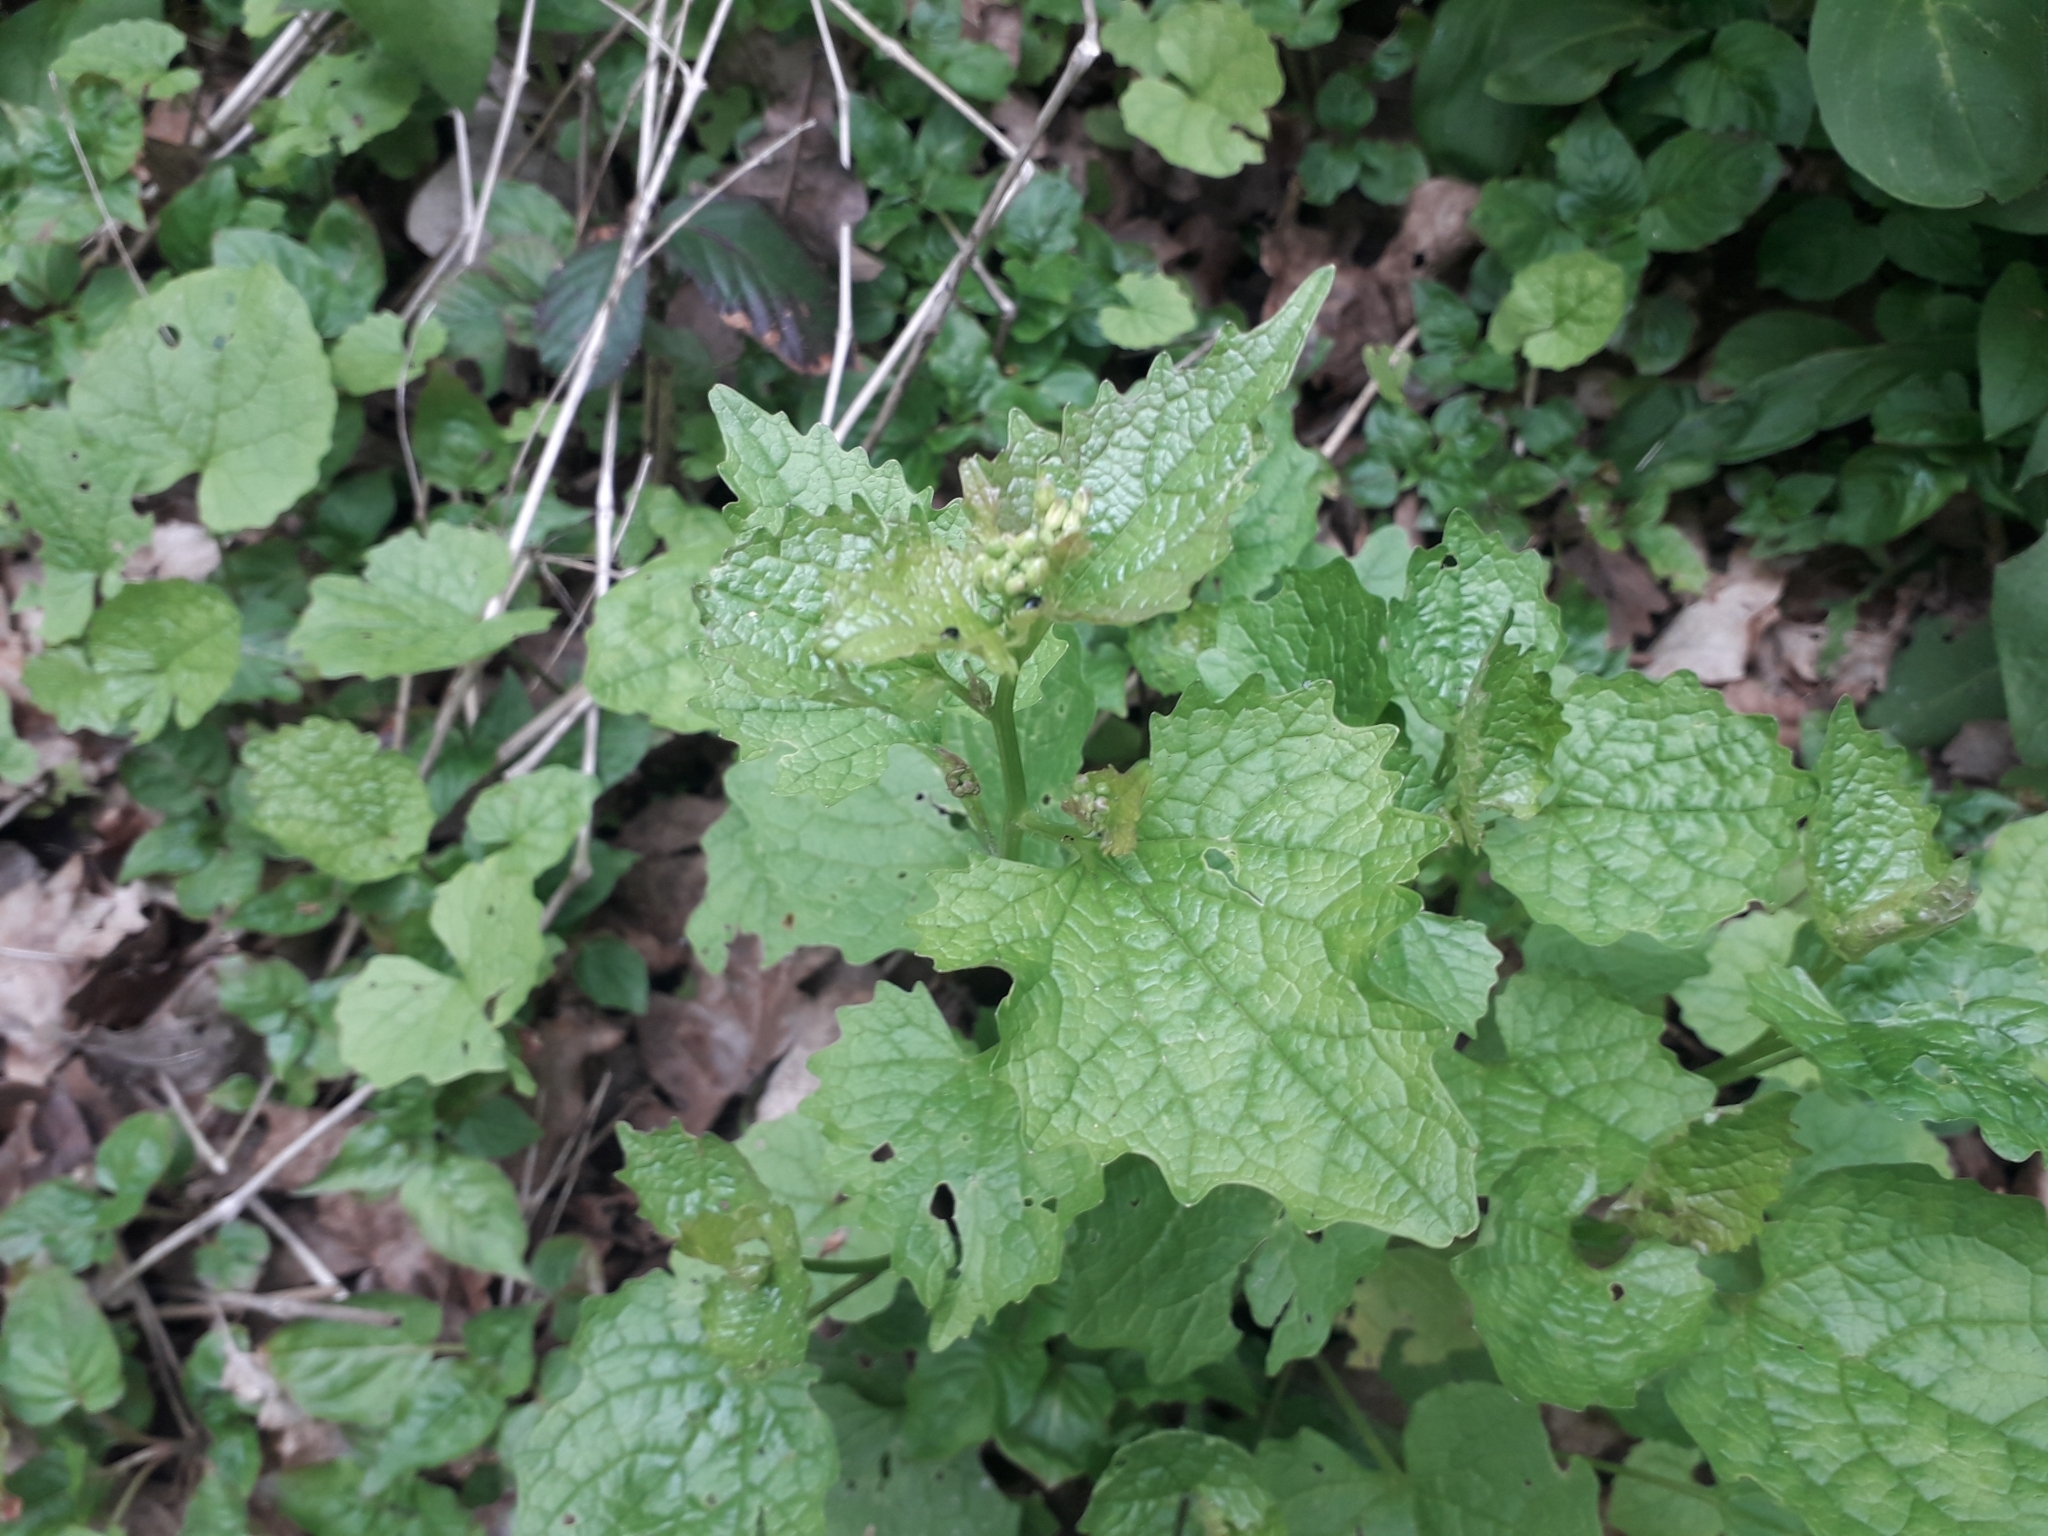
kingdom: Plantae
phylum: Tracheophyta
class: Magnoliopsida
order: Brassicales
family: Brassicaceae
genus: Alliaria
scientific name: Alliaria petiolata
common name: Garlic mustard
